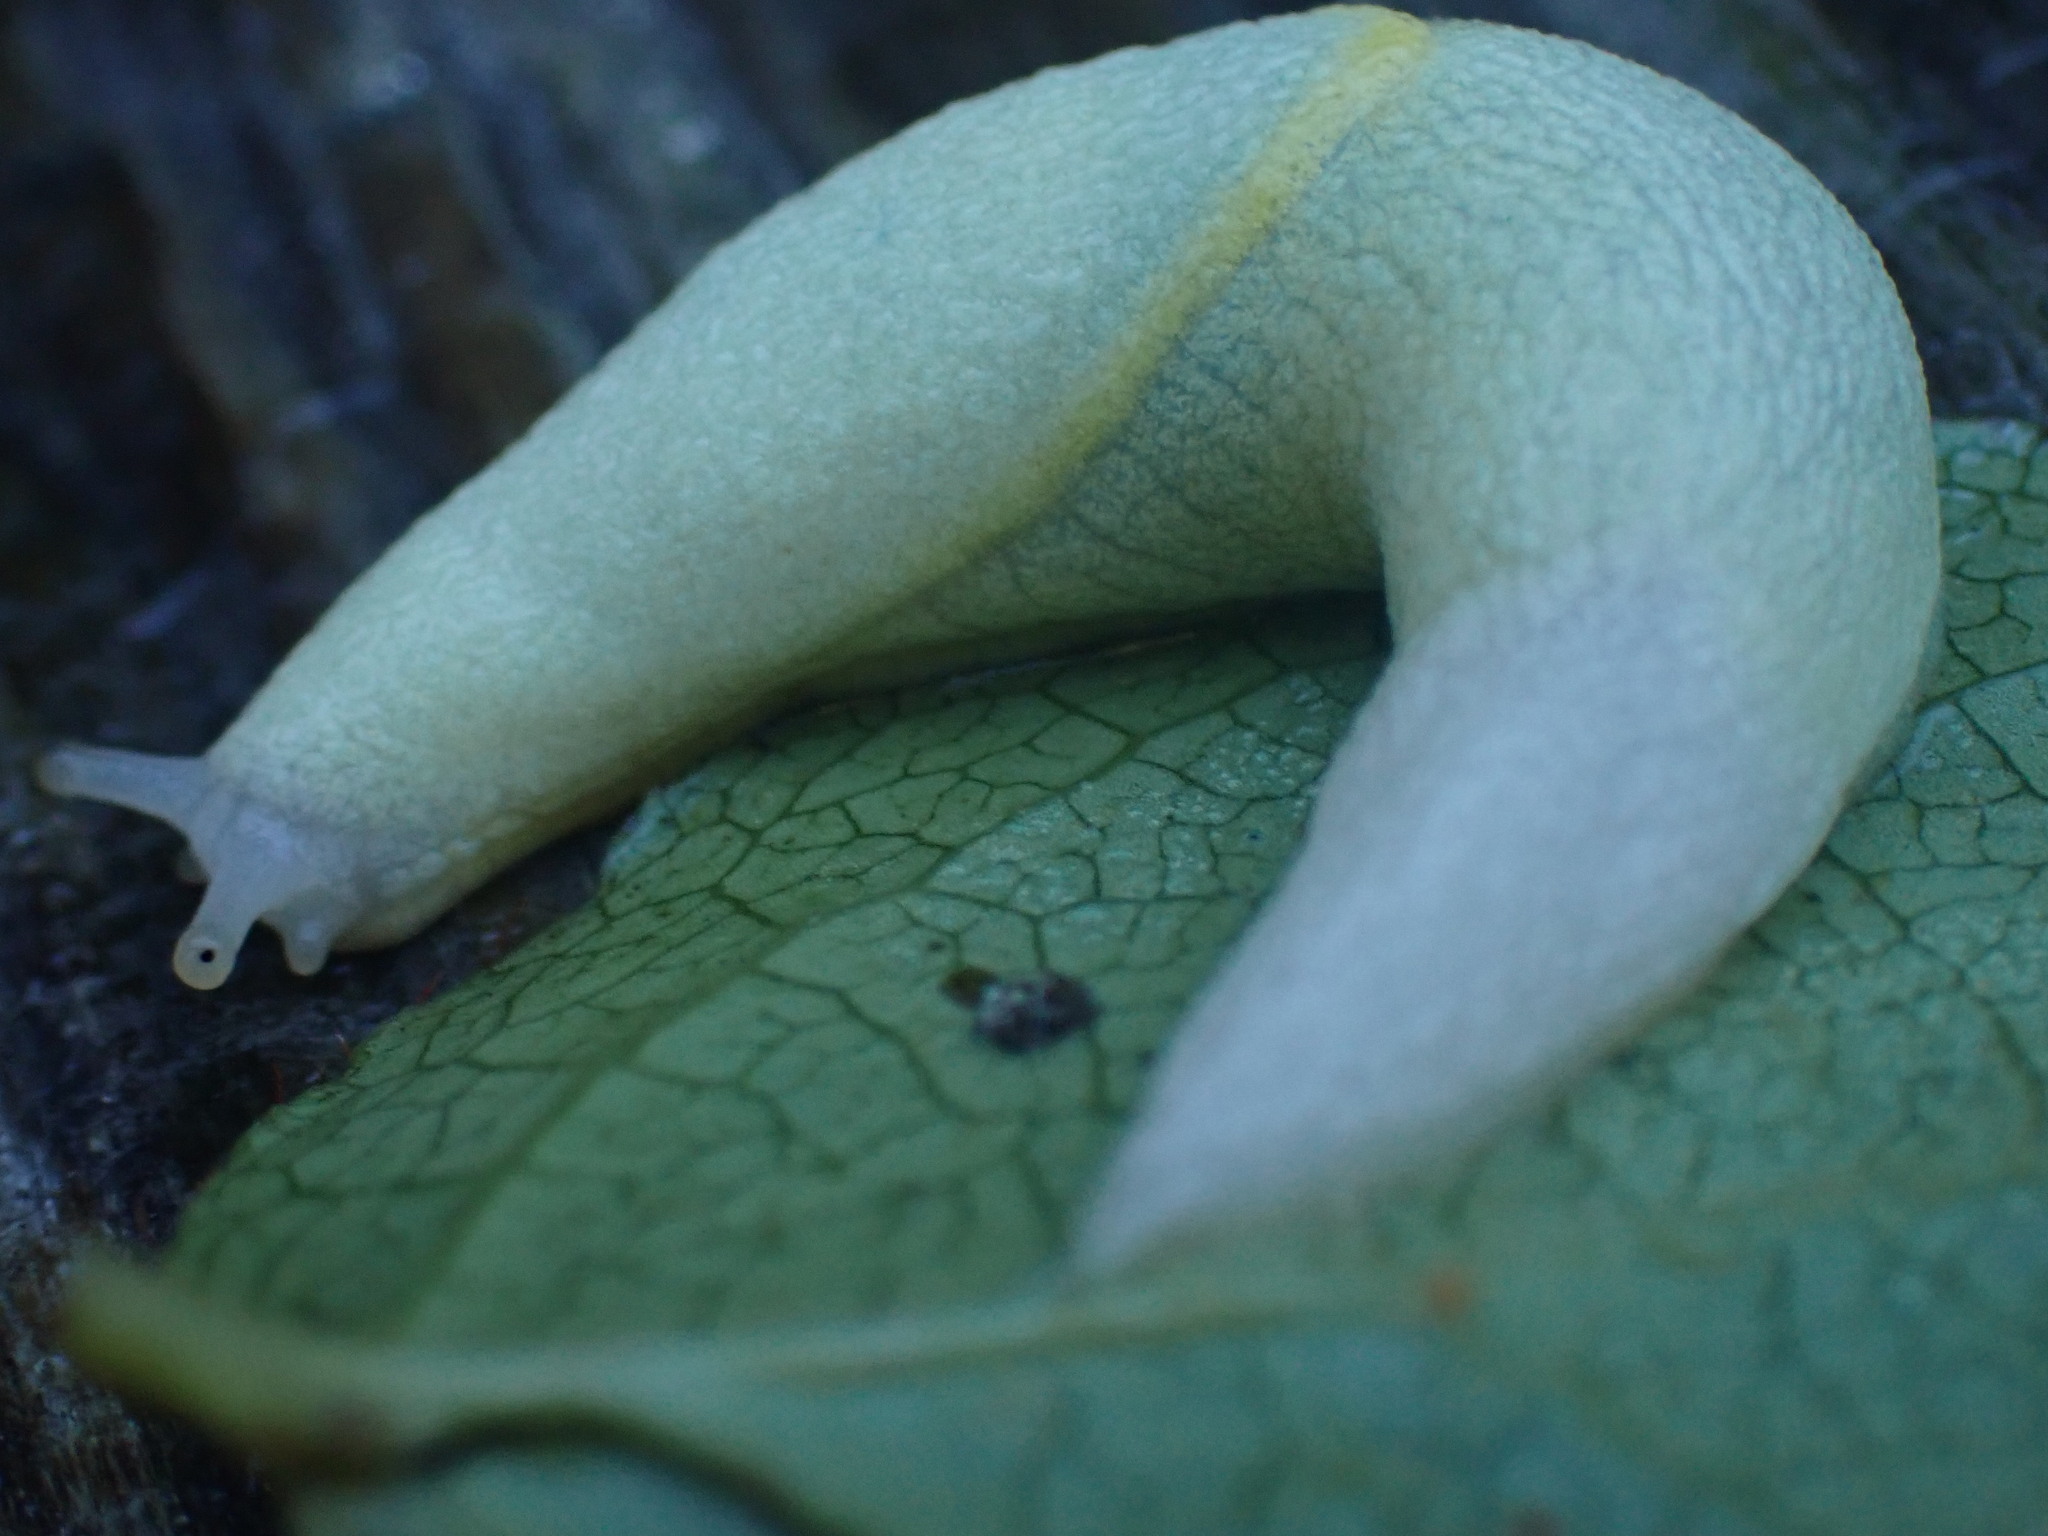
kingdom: Animalia
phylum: Mollusca
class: Gastropoda
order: Stylommatophora
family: Ariolimacidae
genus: Prophysaon
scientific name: Prophysaon foliolatum
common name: Yellow-bordered taildropper
